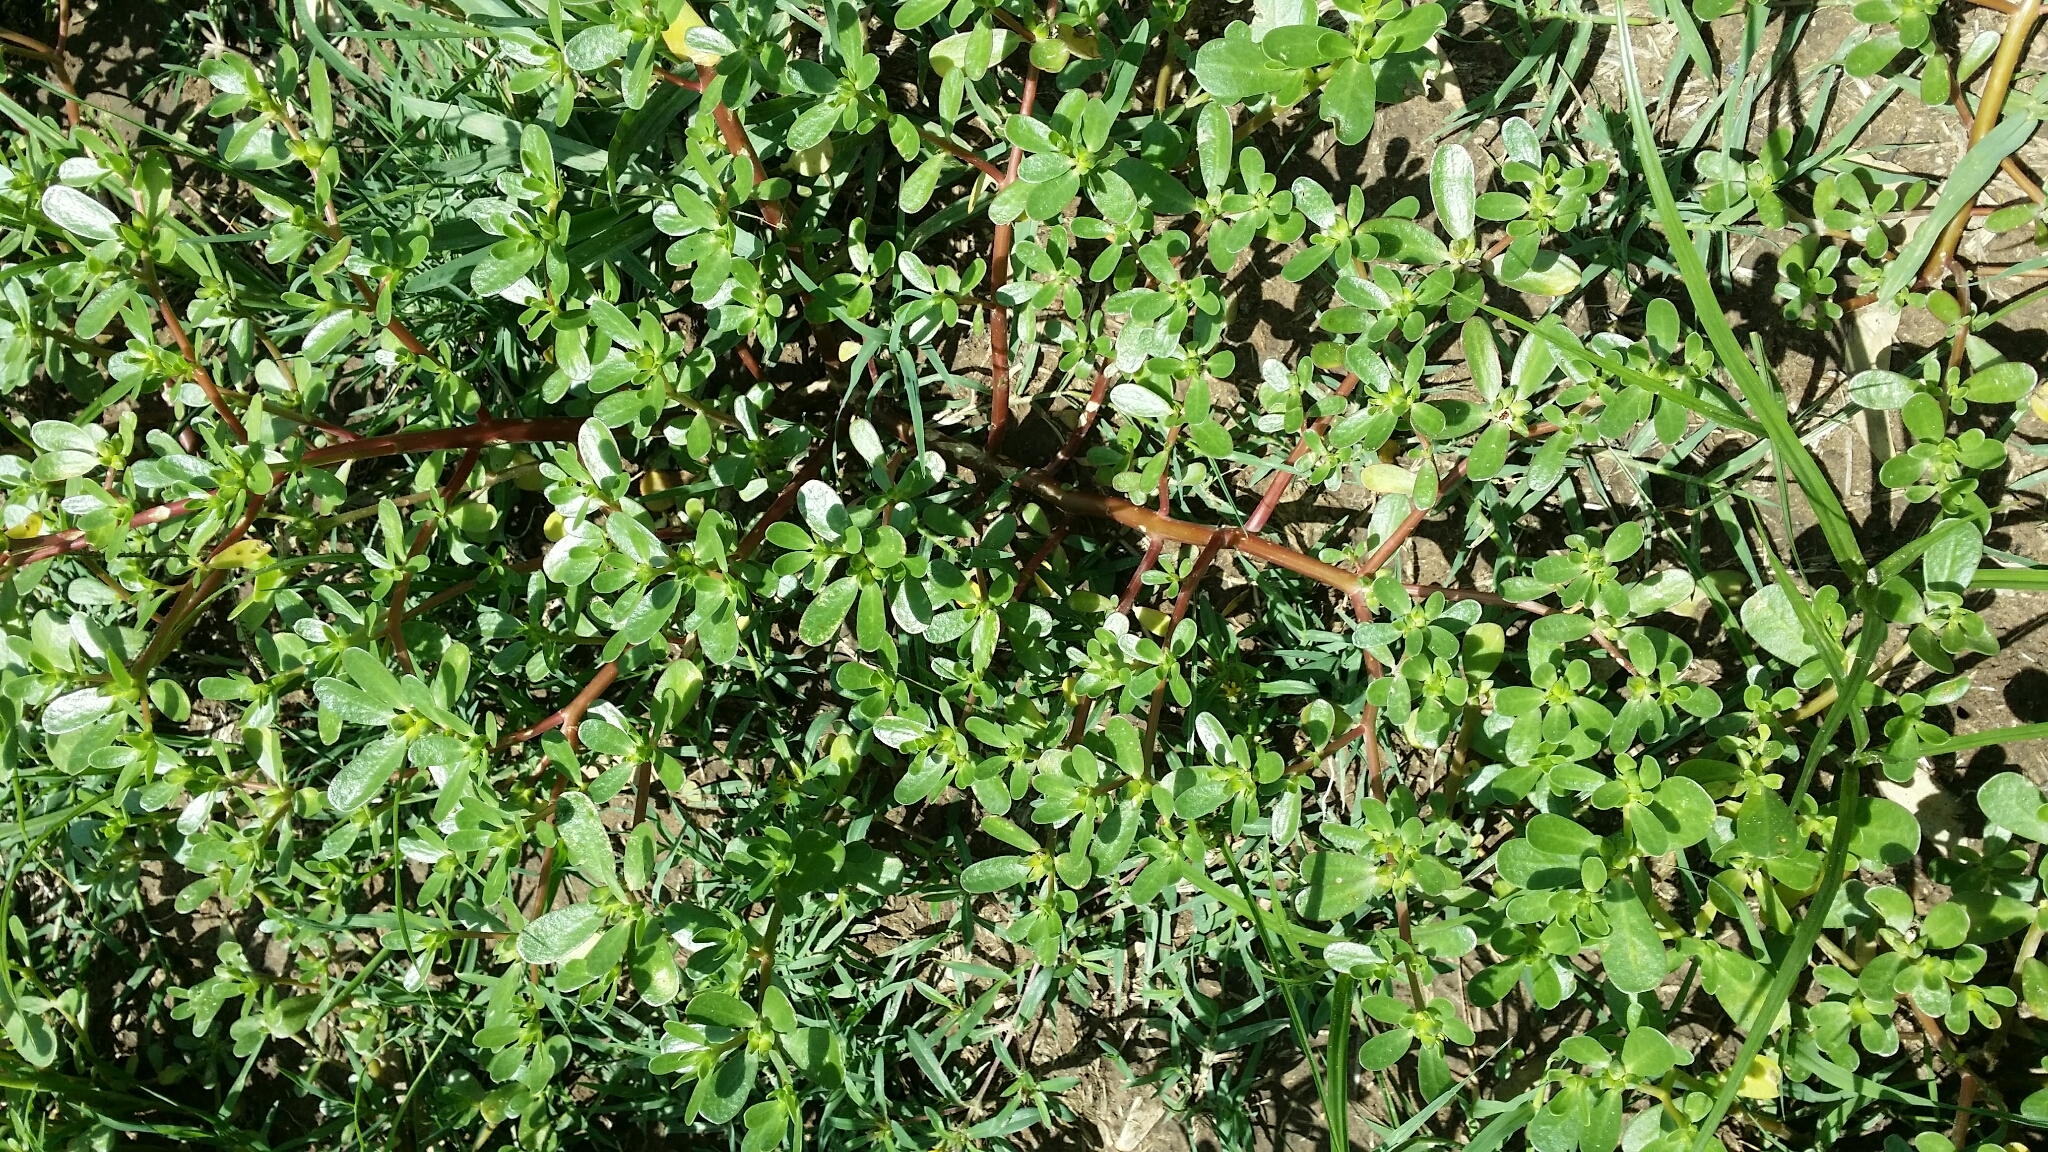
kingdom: Plantae
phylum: Tracheophyta
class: Magnoliopsida
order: Caryophyllales
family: Portulacaceae
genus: Portulaca
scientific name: Portulaca oleracea
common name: Common purslane
